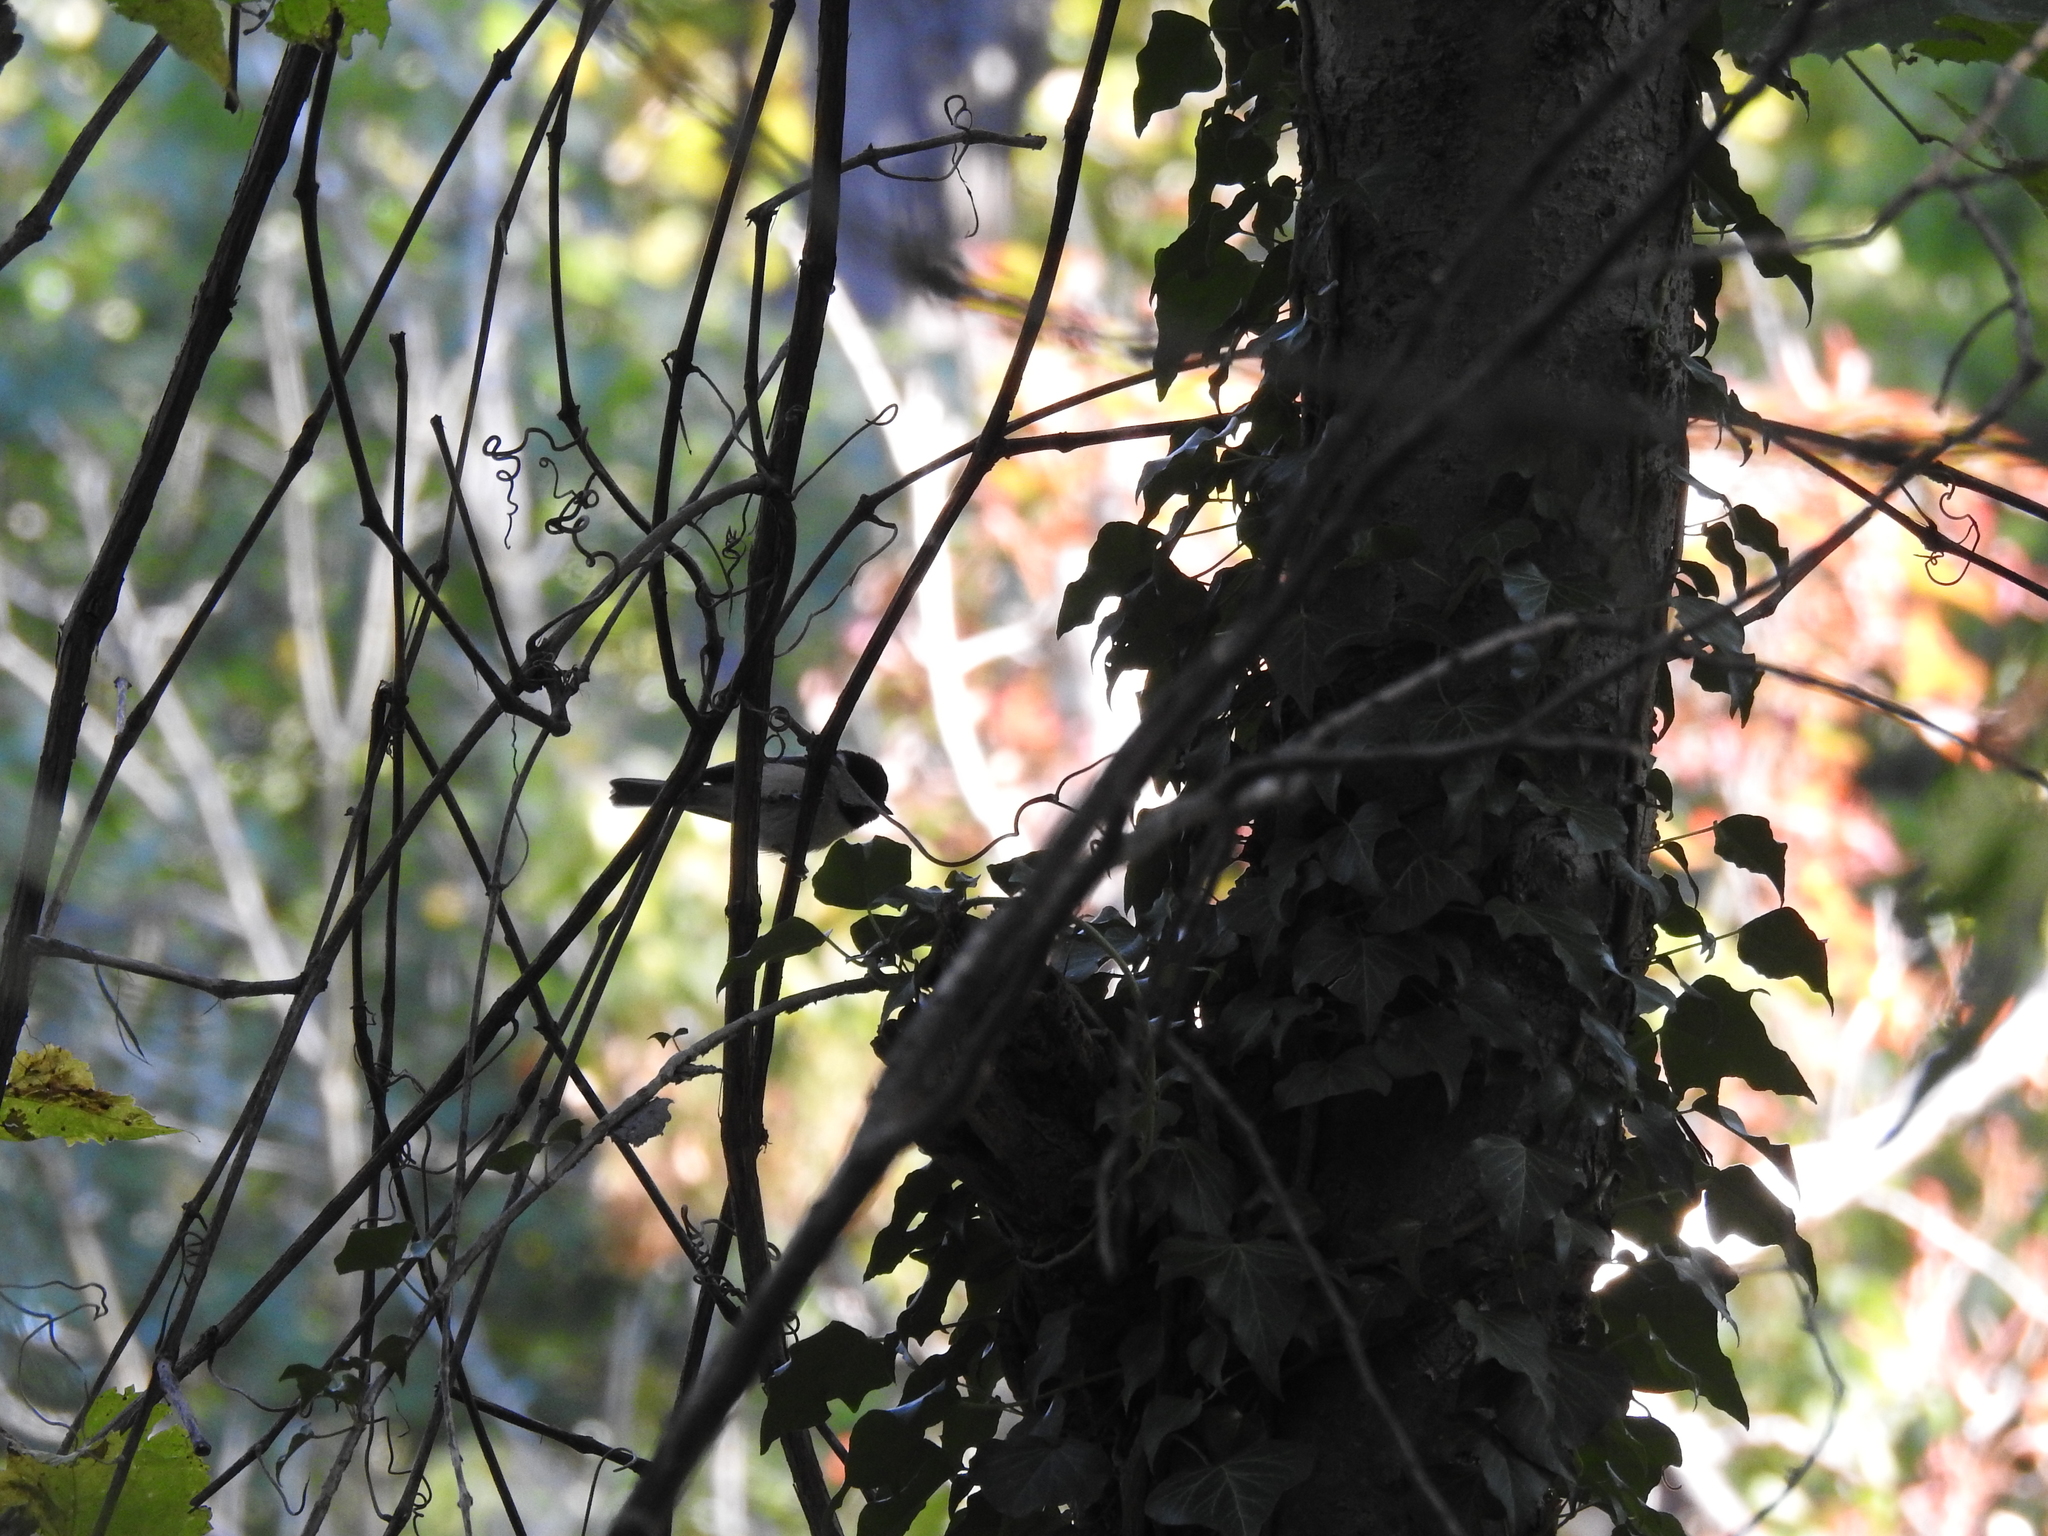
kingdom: Animalia
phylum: Chordata
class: Aves
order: Passeriformes
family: Paridae
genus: Poecile
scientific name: Poecile carolinensis
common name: Carolina chickadee
